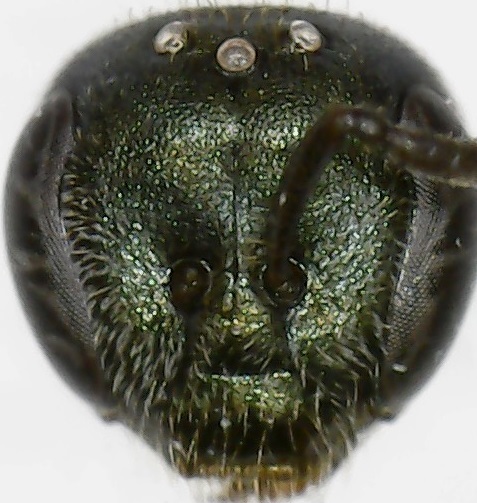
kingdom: Animalia
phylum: Arthropoda
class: Insecta
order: Hymenoptera
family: Halictidae
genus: Lasioglossum
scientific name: Lasioglossum imitatum
